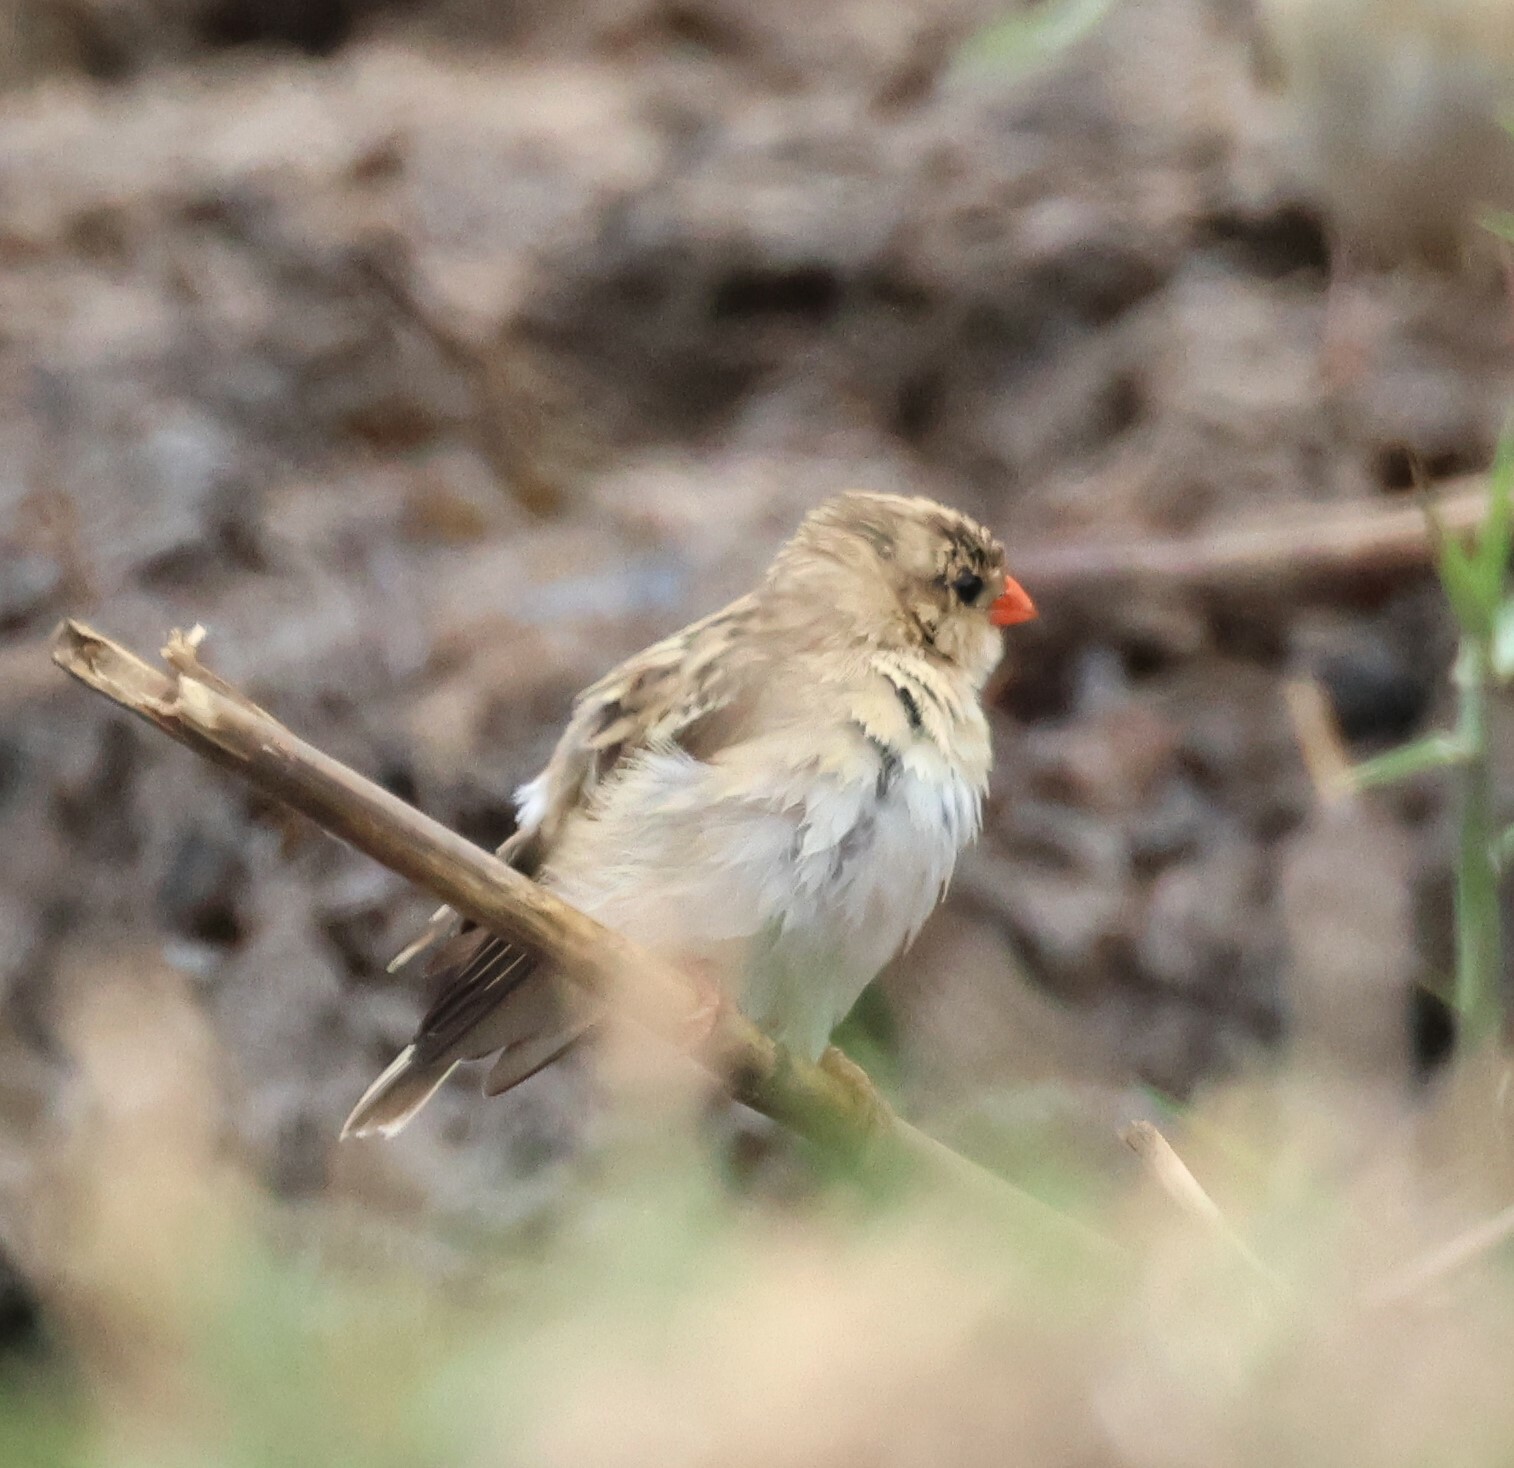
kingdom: Animalia
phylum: Chordata
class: Aves
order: Passeriformes
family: Viduidae
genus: Vidua
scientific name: Vidua regia
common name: Shaft-tailed whydah
